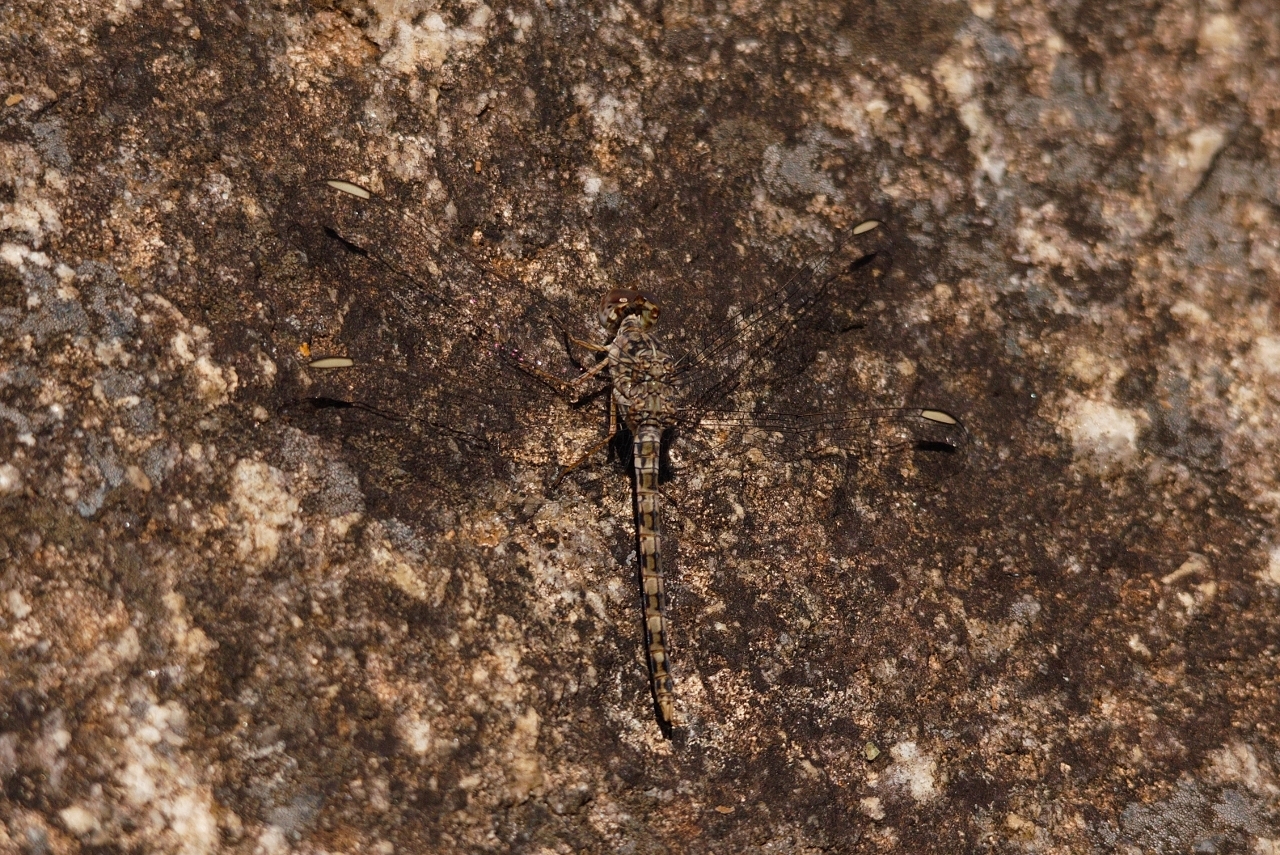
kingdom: Animalia
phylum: Arthropoda
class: Insecta
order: Odonata
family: Libellulidae
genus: Crocothemis
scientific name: Crocothemis saxicolor
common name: Granite scarlet
